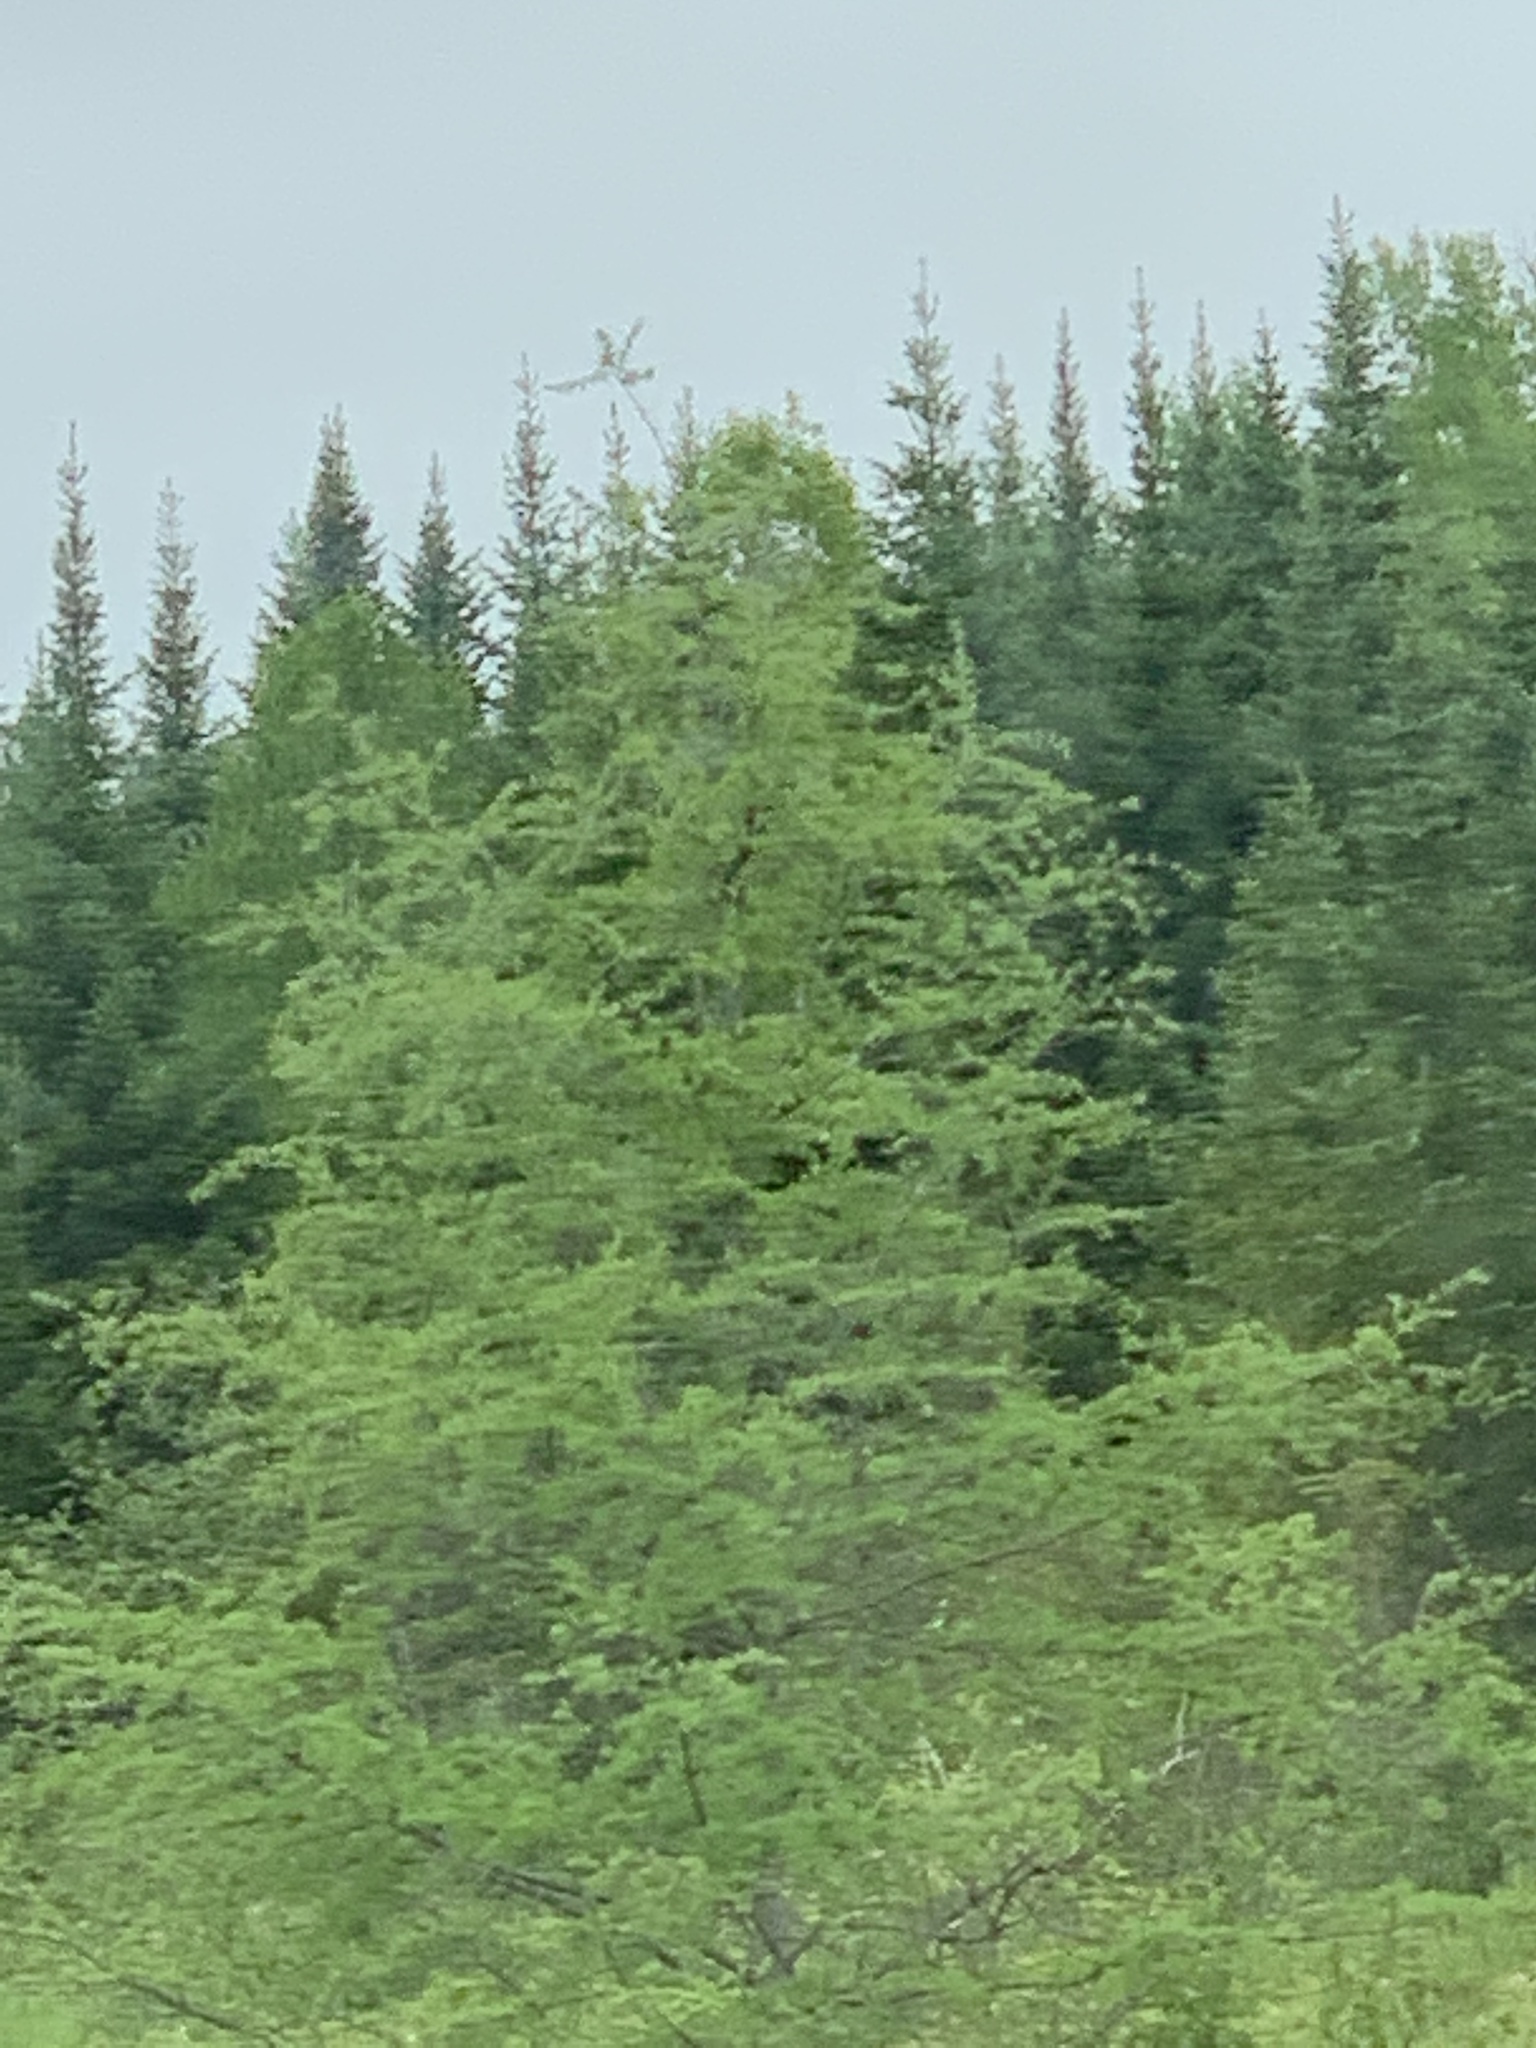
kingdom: Plantae
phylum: Tracheophyta
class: Pinopsida
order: Pinales
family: Pinaceae
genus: Larix
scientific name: Larix laricina
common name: American larch
